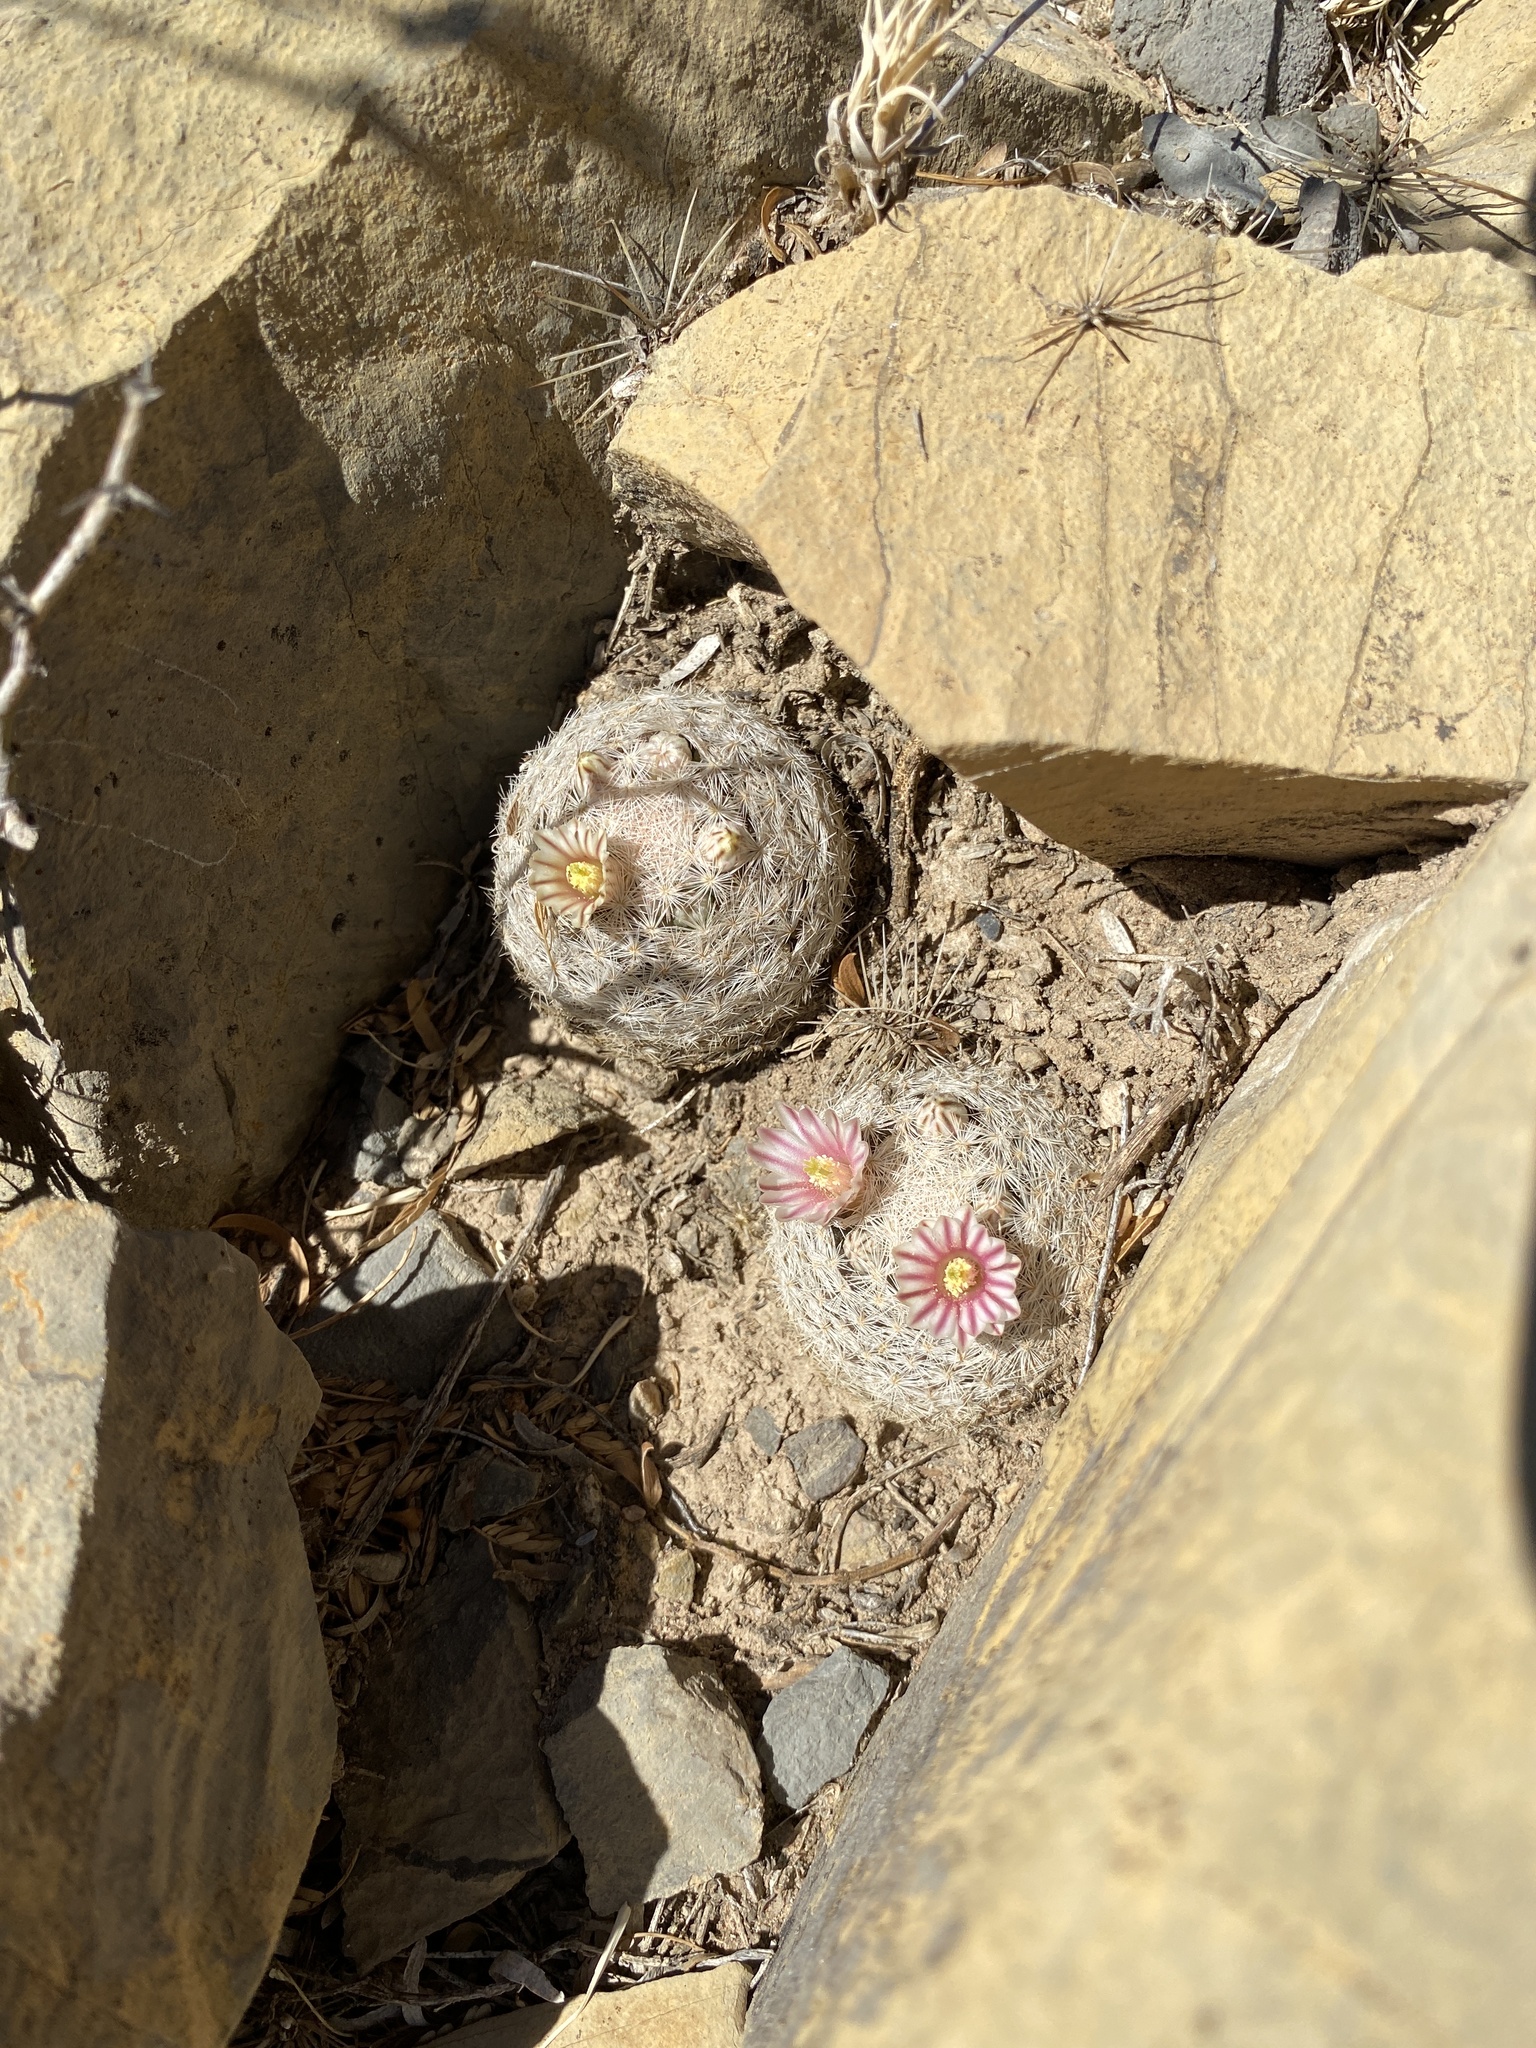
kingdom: Plantae
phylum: Tracheophyta
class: Magnoliopsida
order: Caryophyllales
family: Cactaceae
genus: Mammillaria
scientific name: Mammillaria lasiacantha
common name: Lace-spine nipple cactus
